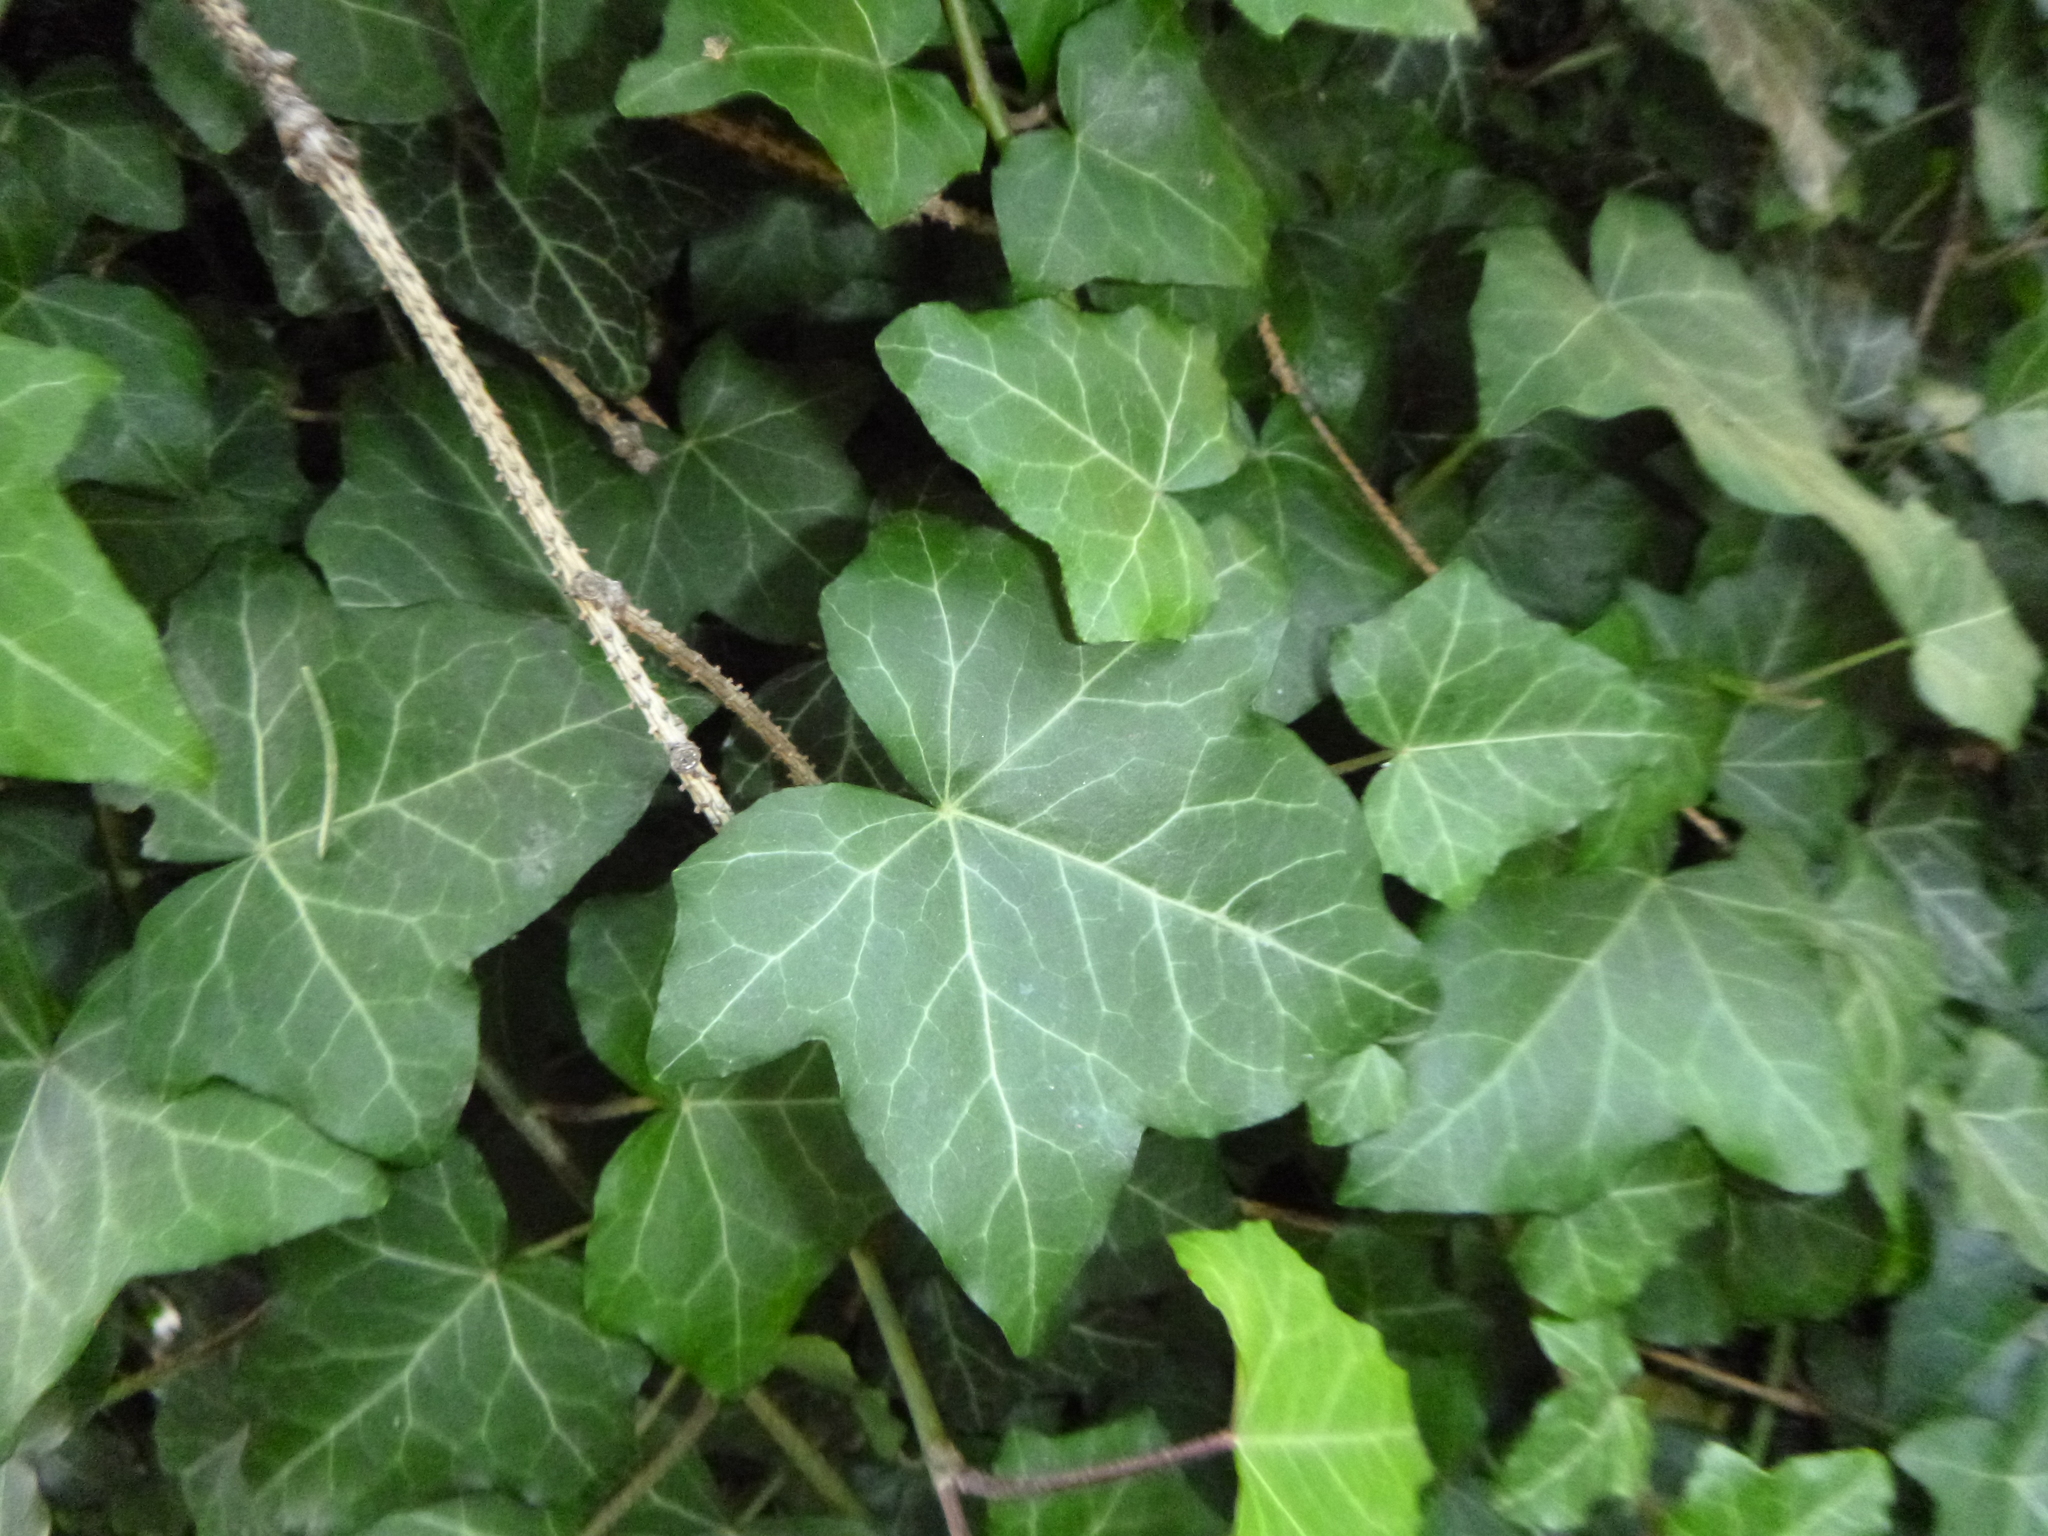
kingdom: Plantae
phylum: Tracheophyta
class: Magnoliopsida
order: Apiales
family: Araliaceae
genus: Hedera
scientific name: Hedera helix
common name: Ivy
